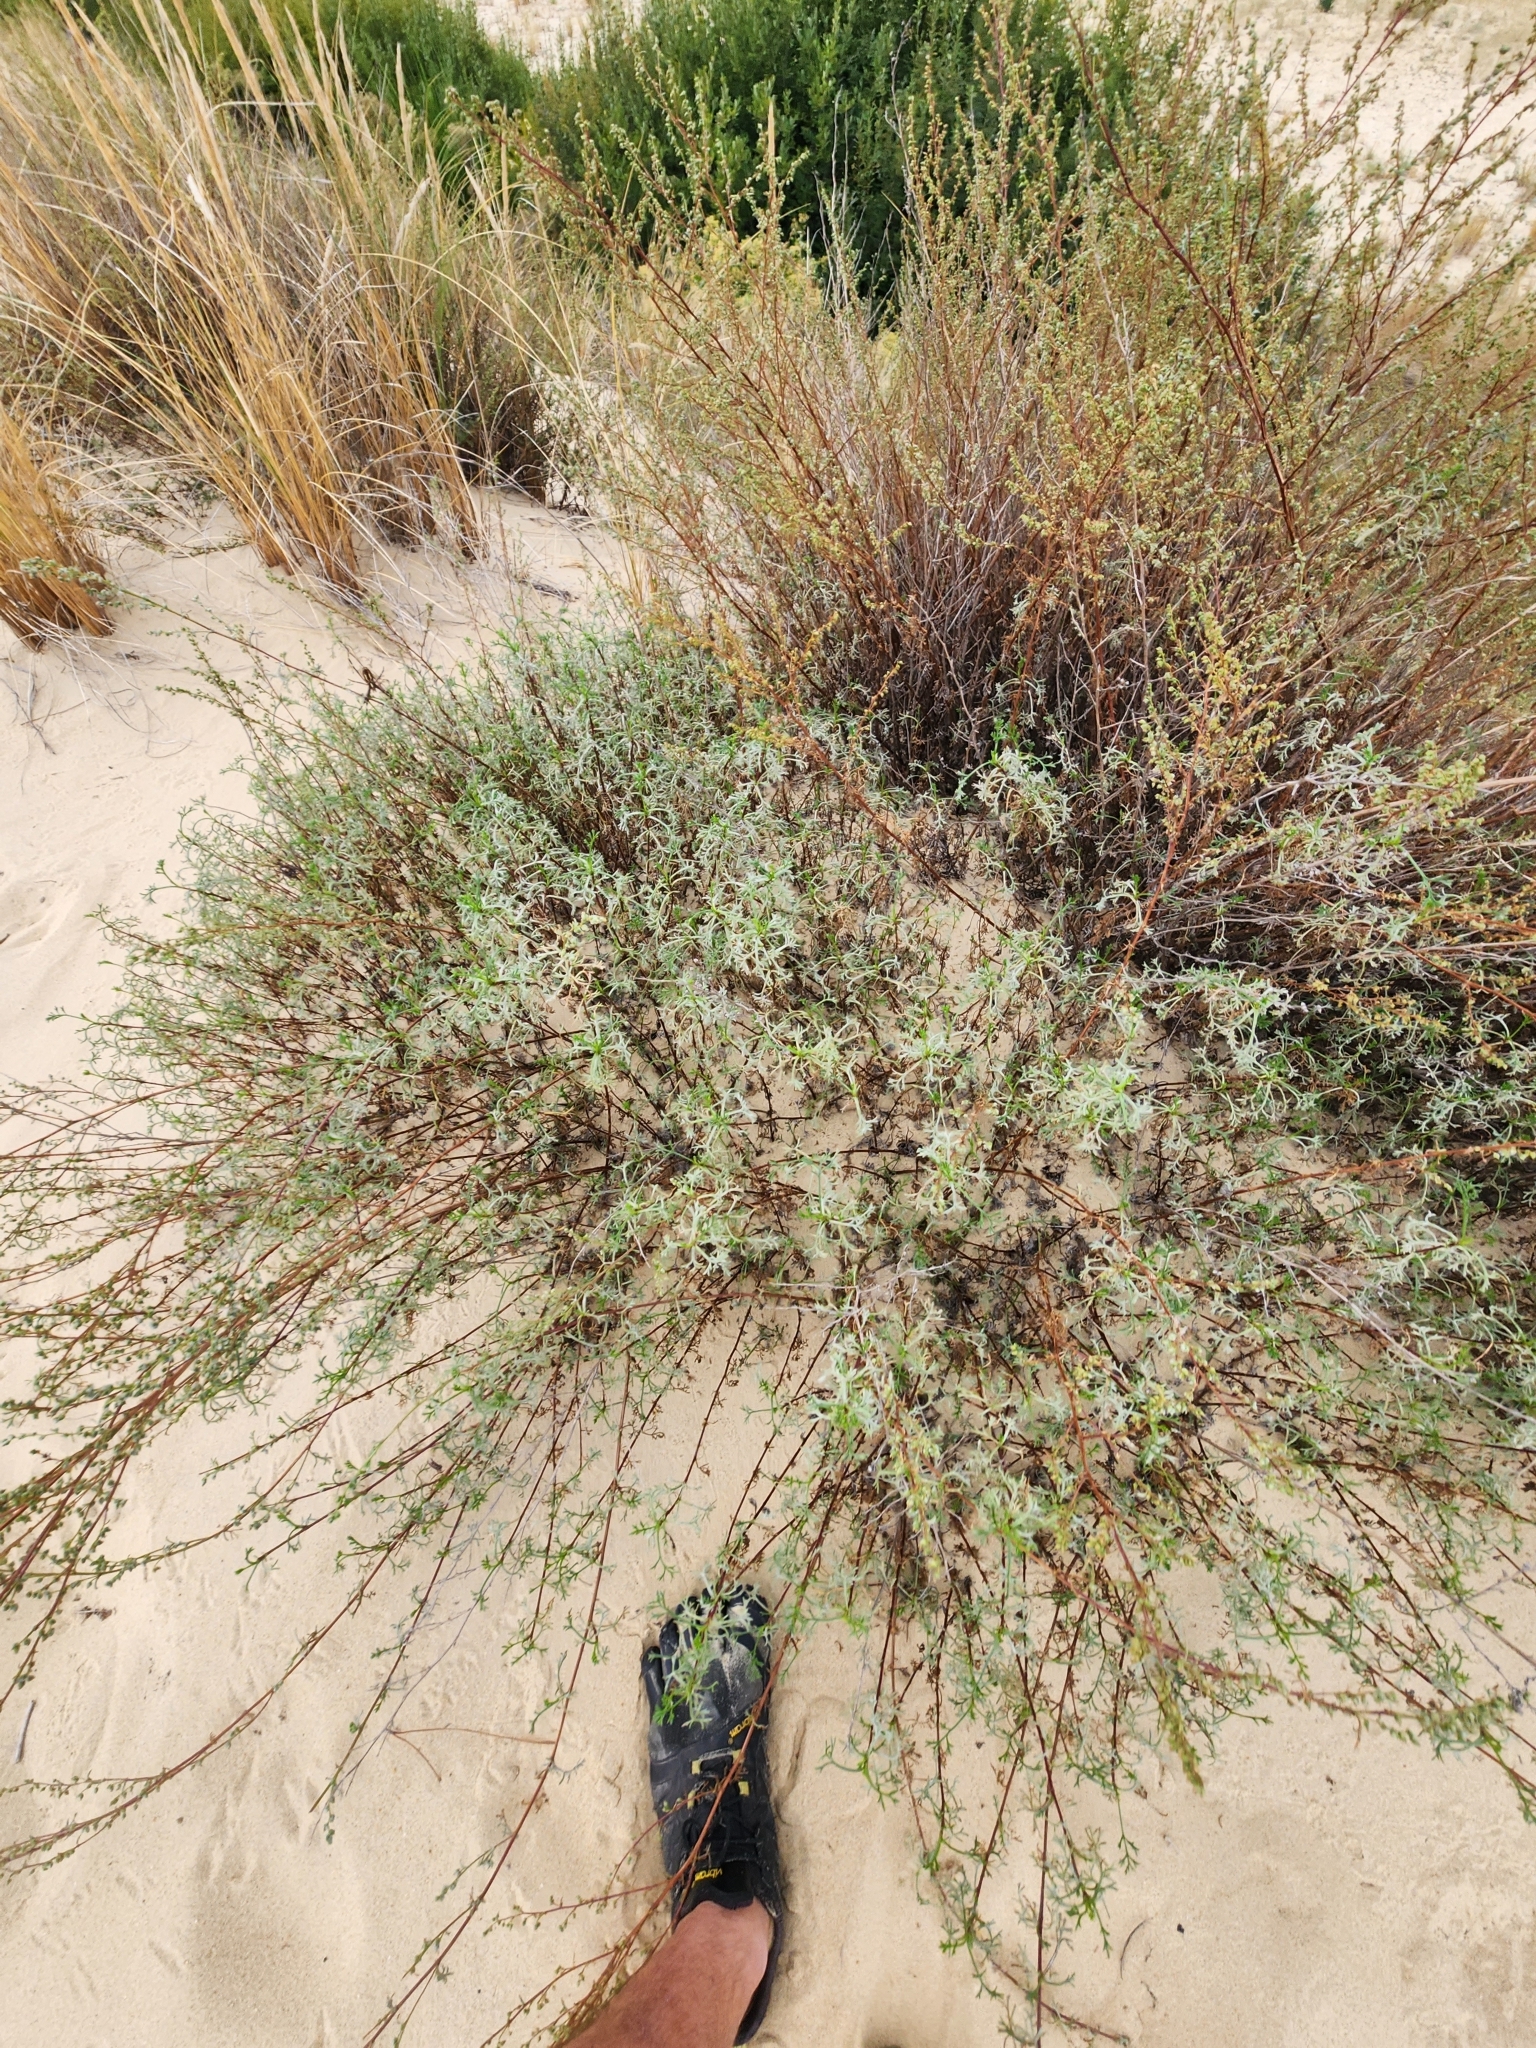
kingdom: Plantae
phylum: Tracheophyta
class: Magnoliopsida
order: Asterales
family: Asteraceae
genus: Artemisia
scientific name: Artemisia crithmifolia
